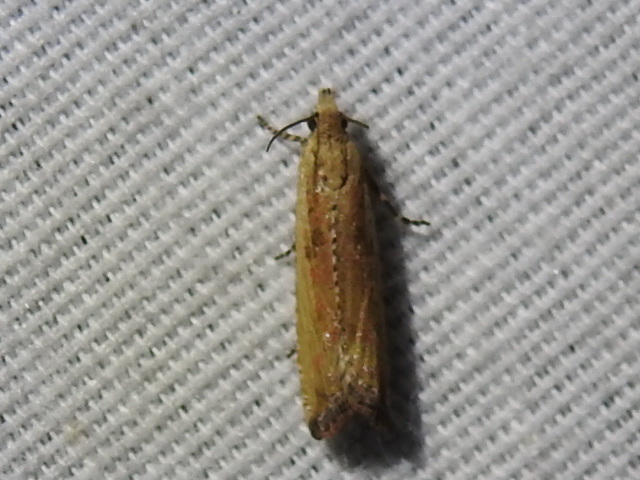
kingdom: Animalia
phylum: Arthropoda
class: Insecta
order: Lepidoptera
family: Tortricidae
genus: Bactra
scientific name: Bactra verutana
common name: Javelin moth
